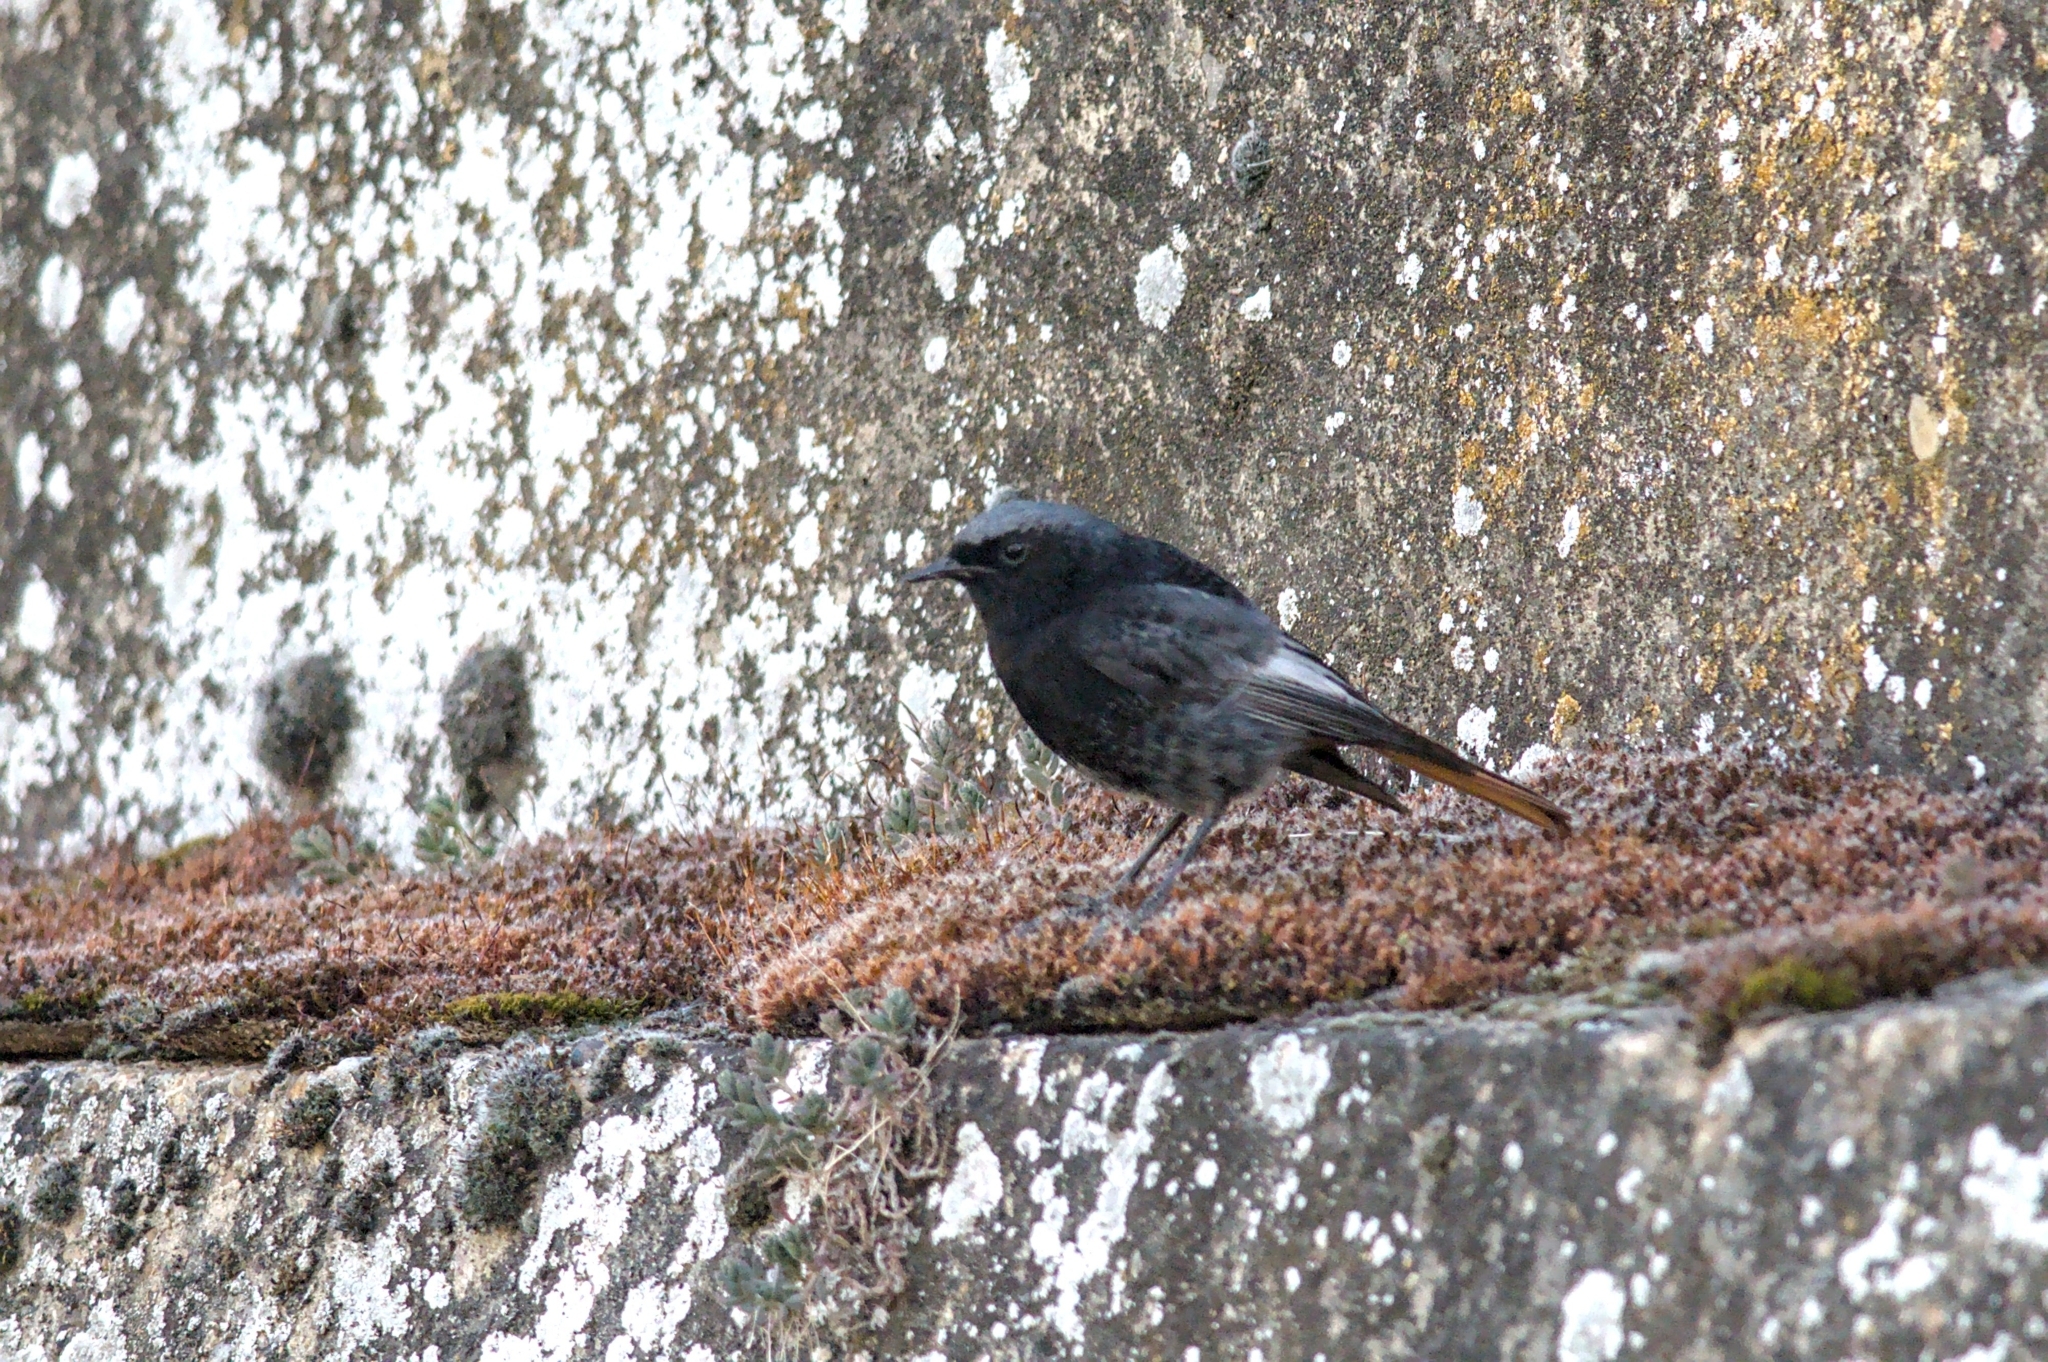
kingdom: Animalia
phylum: Chordata
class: Aves
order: Passeriformes
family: Muscicapidae
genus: Phoenicurus
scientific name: Phoenicurus ochruros
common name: Black redstart
